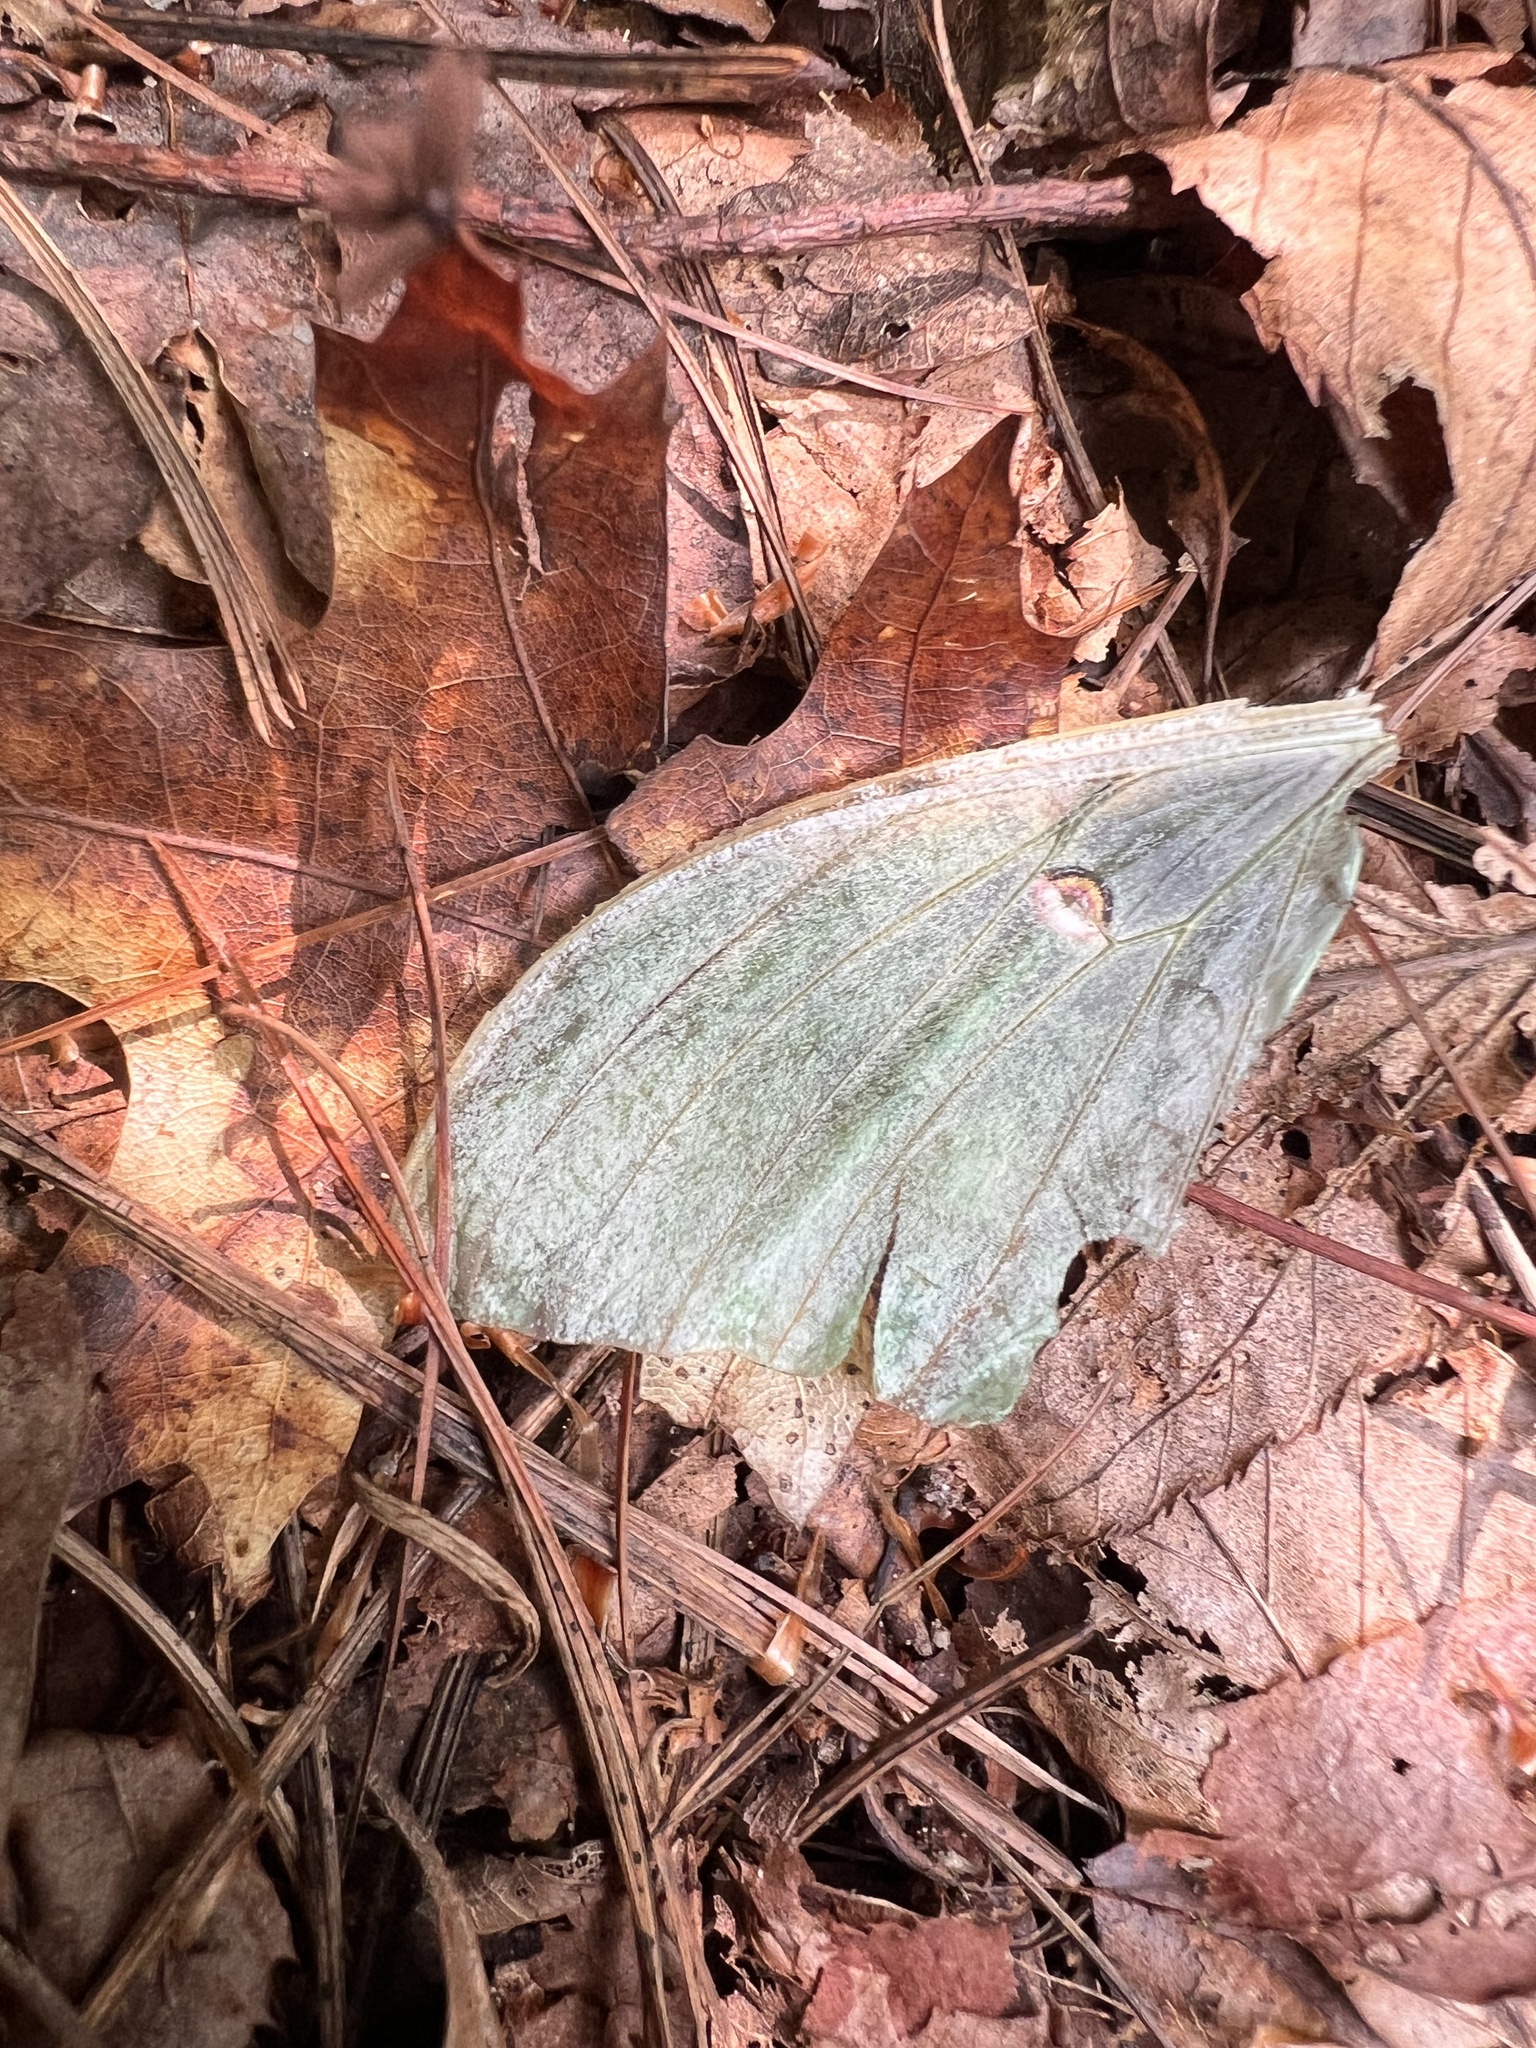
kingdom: Animalia
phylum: Arthropoda
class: Insecta
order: Lepidoptera
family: Saturniidae
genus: Actias
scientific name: Actias luna
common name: Luna moth
